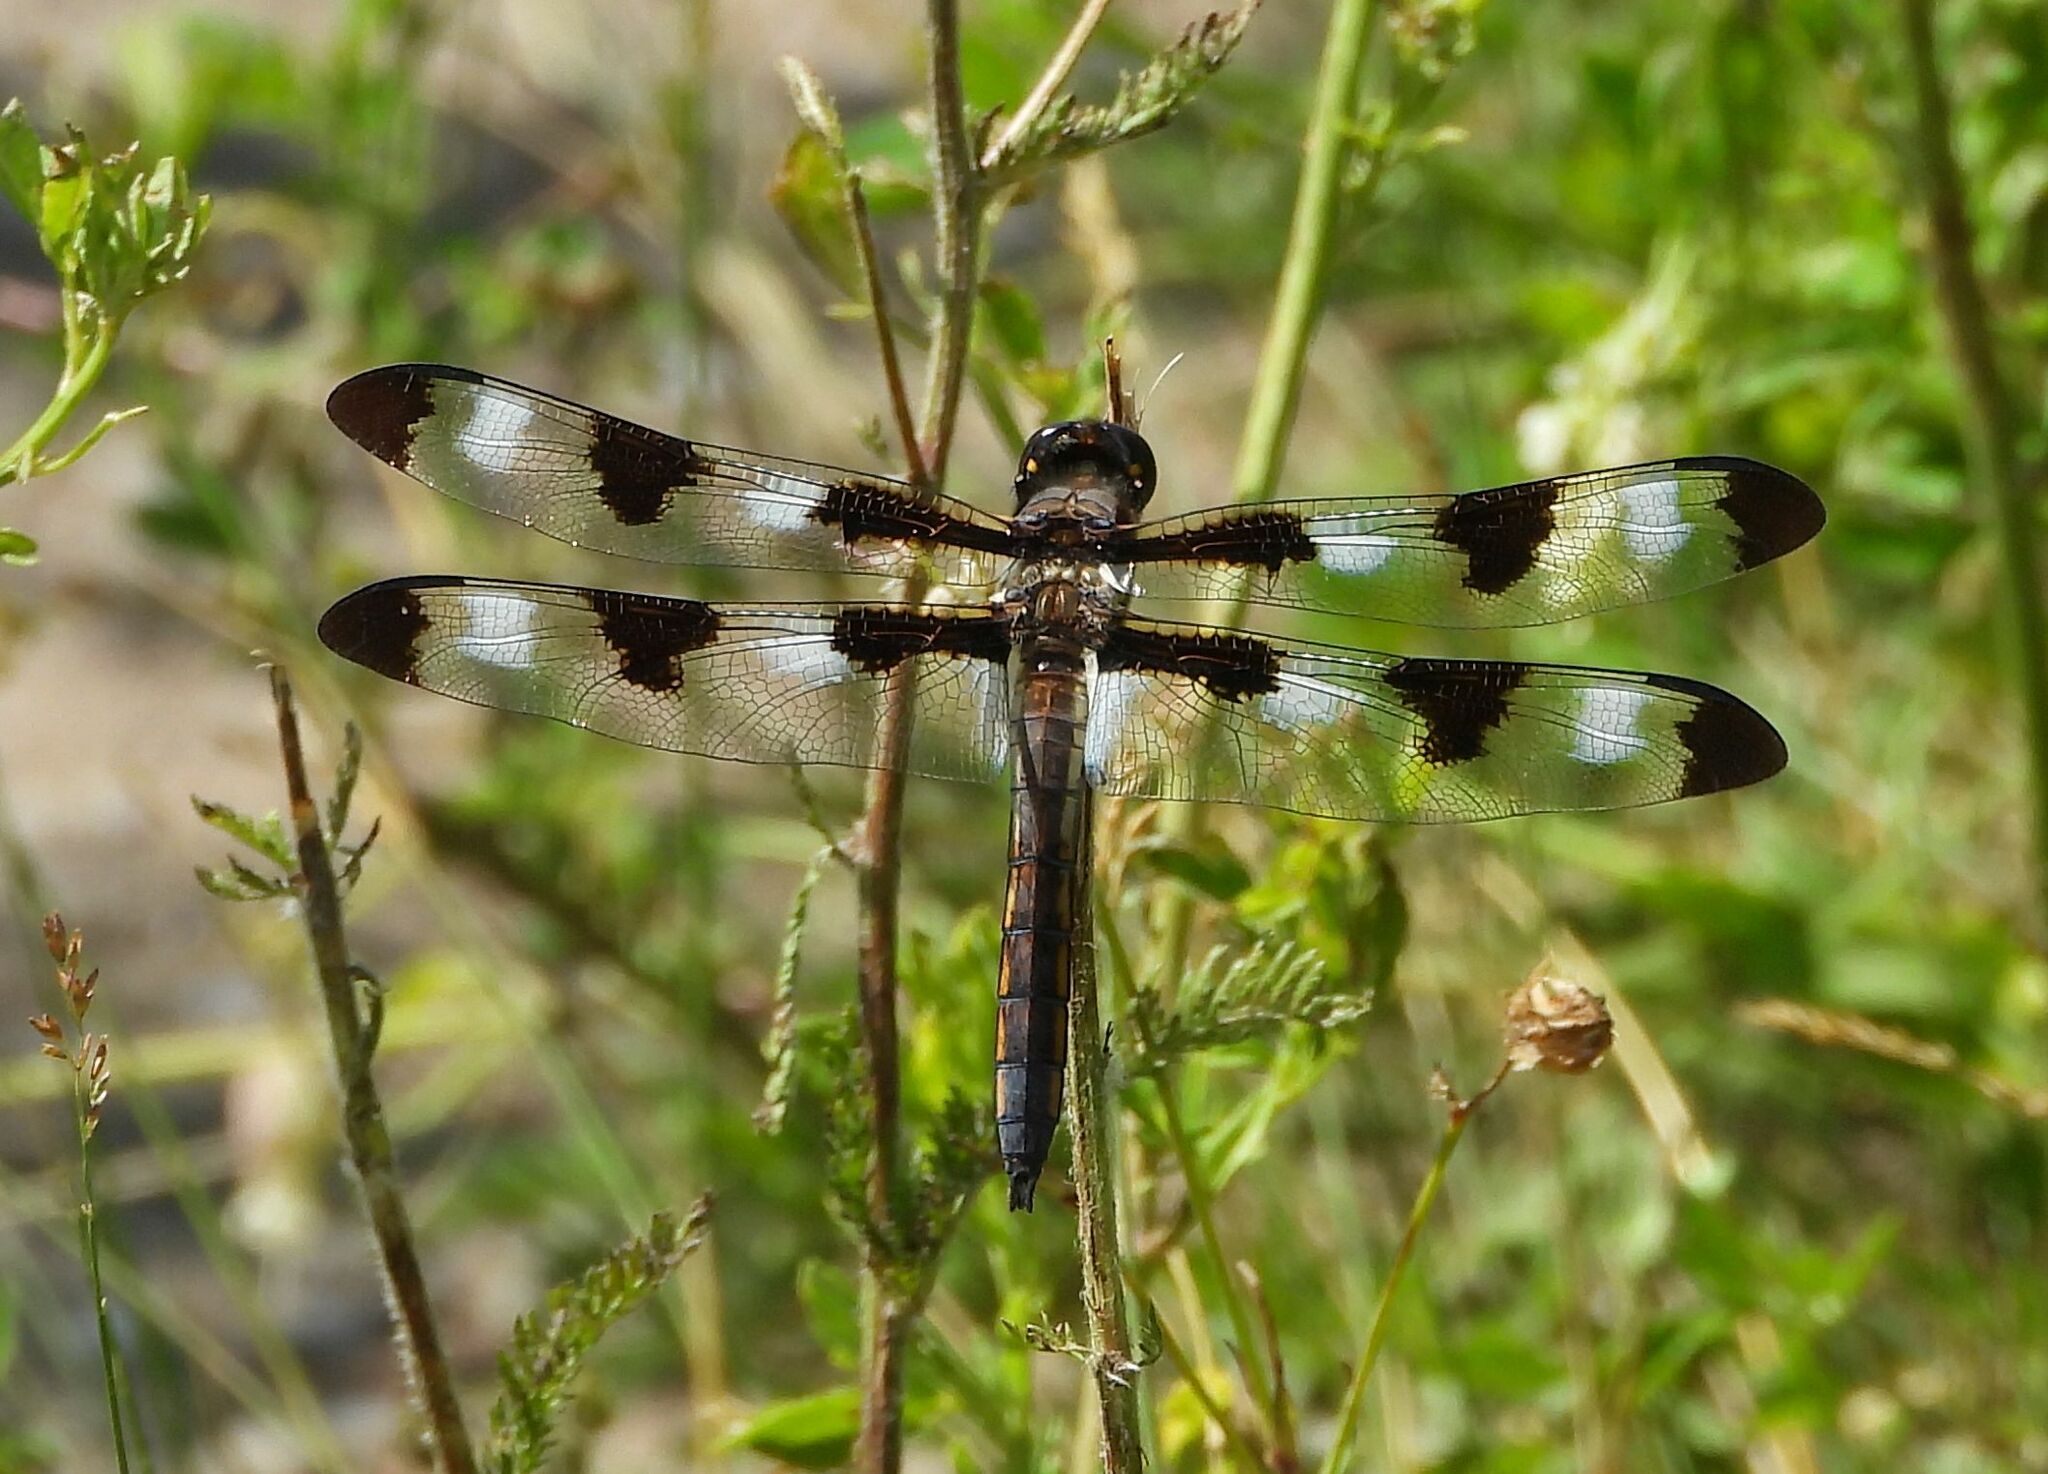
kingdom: Animalia
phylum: Arthropoda
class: Insecta
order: Odonata
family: Libellulidae
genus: Libellula
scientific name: Libellula pulchella
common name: Twelve-spotted skimmer
